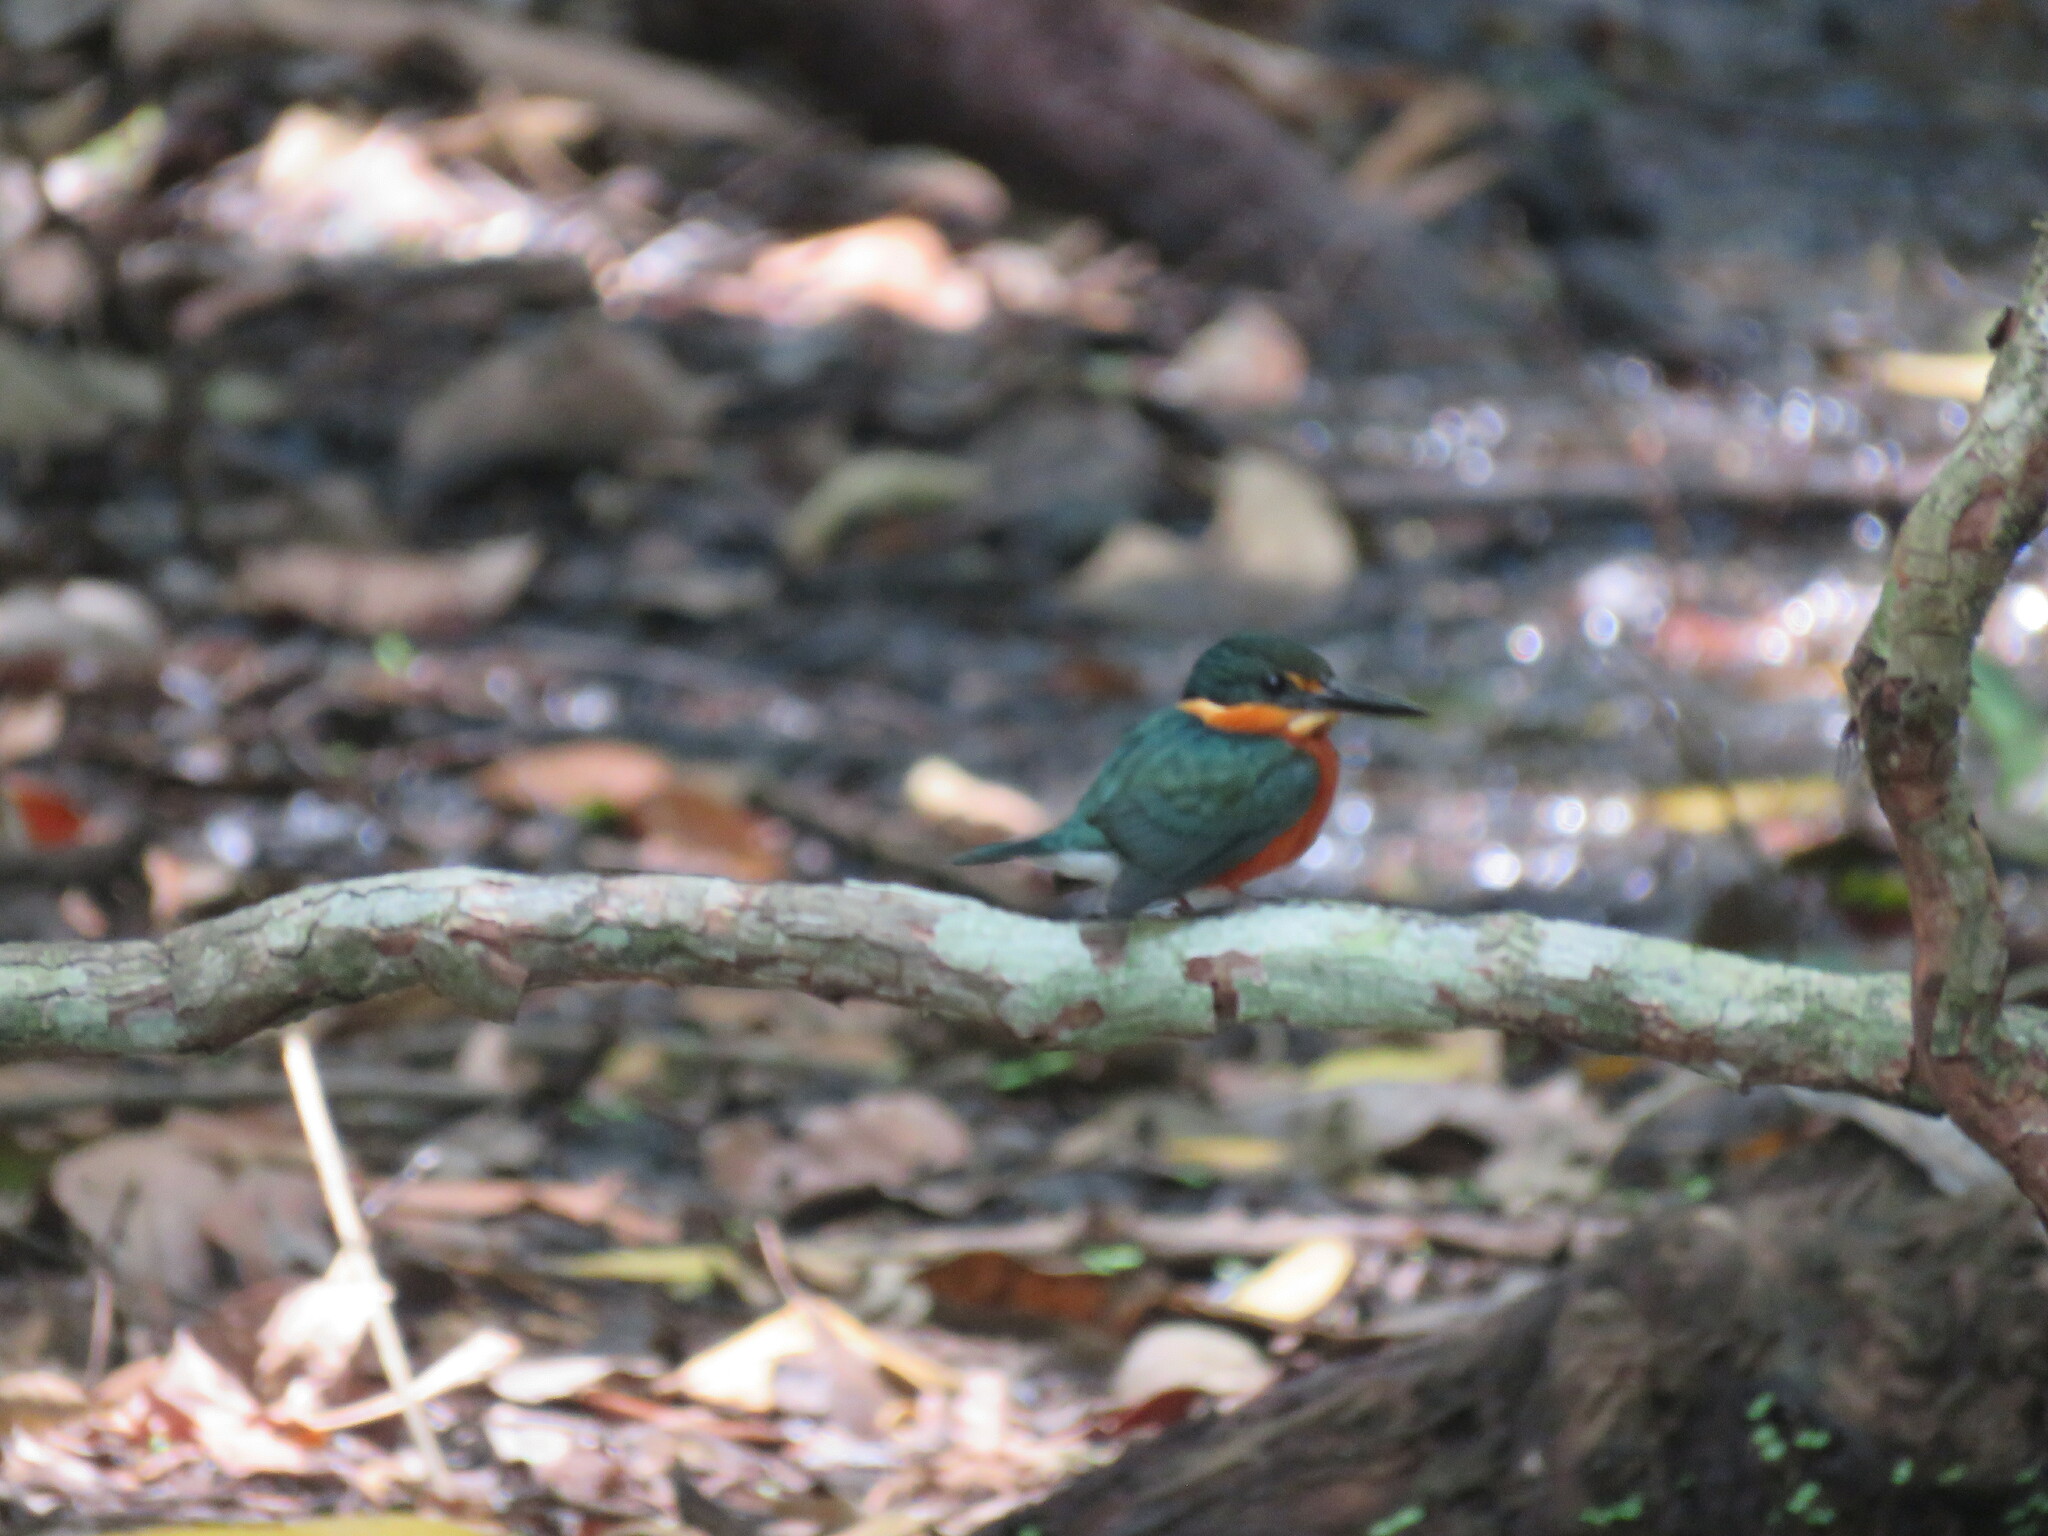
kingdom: Animalia
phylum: Chordata
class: Aves
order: Coraciiformes
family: Alcedinidae
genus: Chloroceryle
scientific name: Chloroceryle aenea
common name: American pygmy kingfisher
